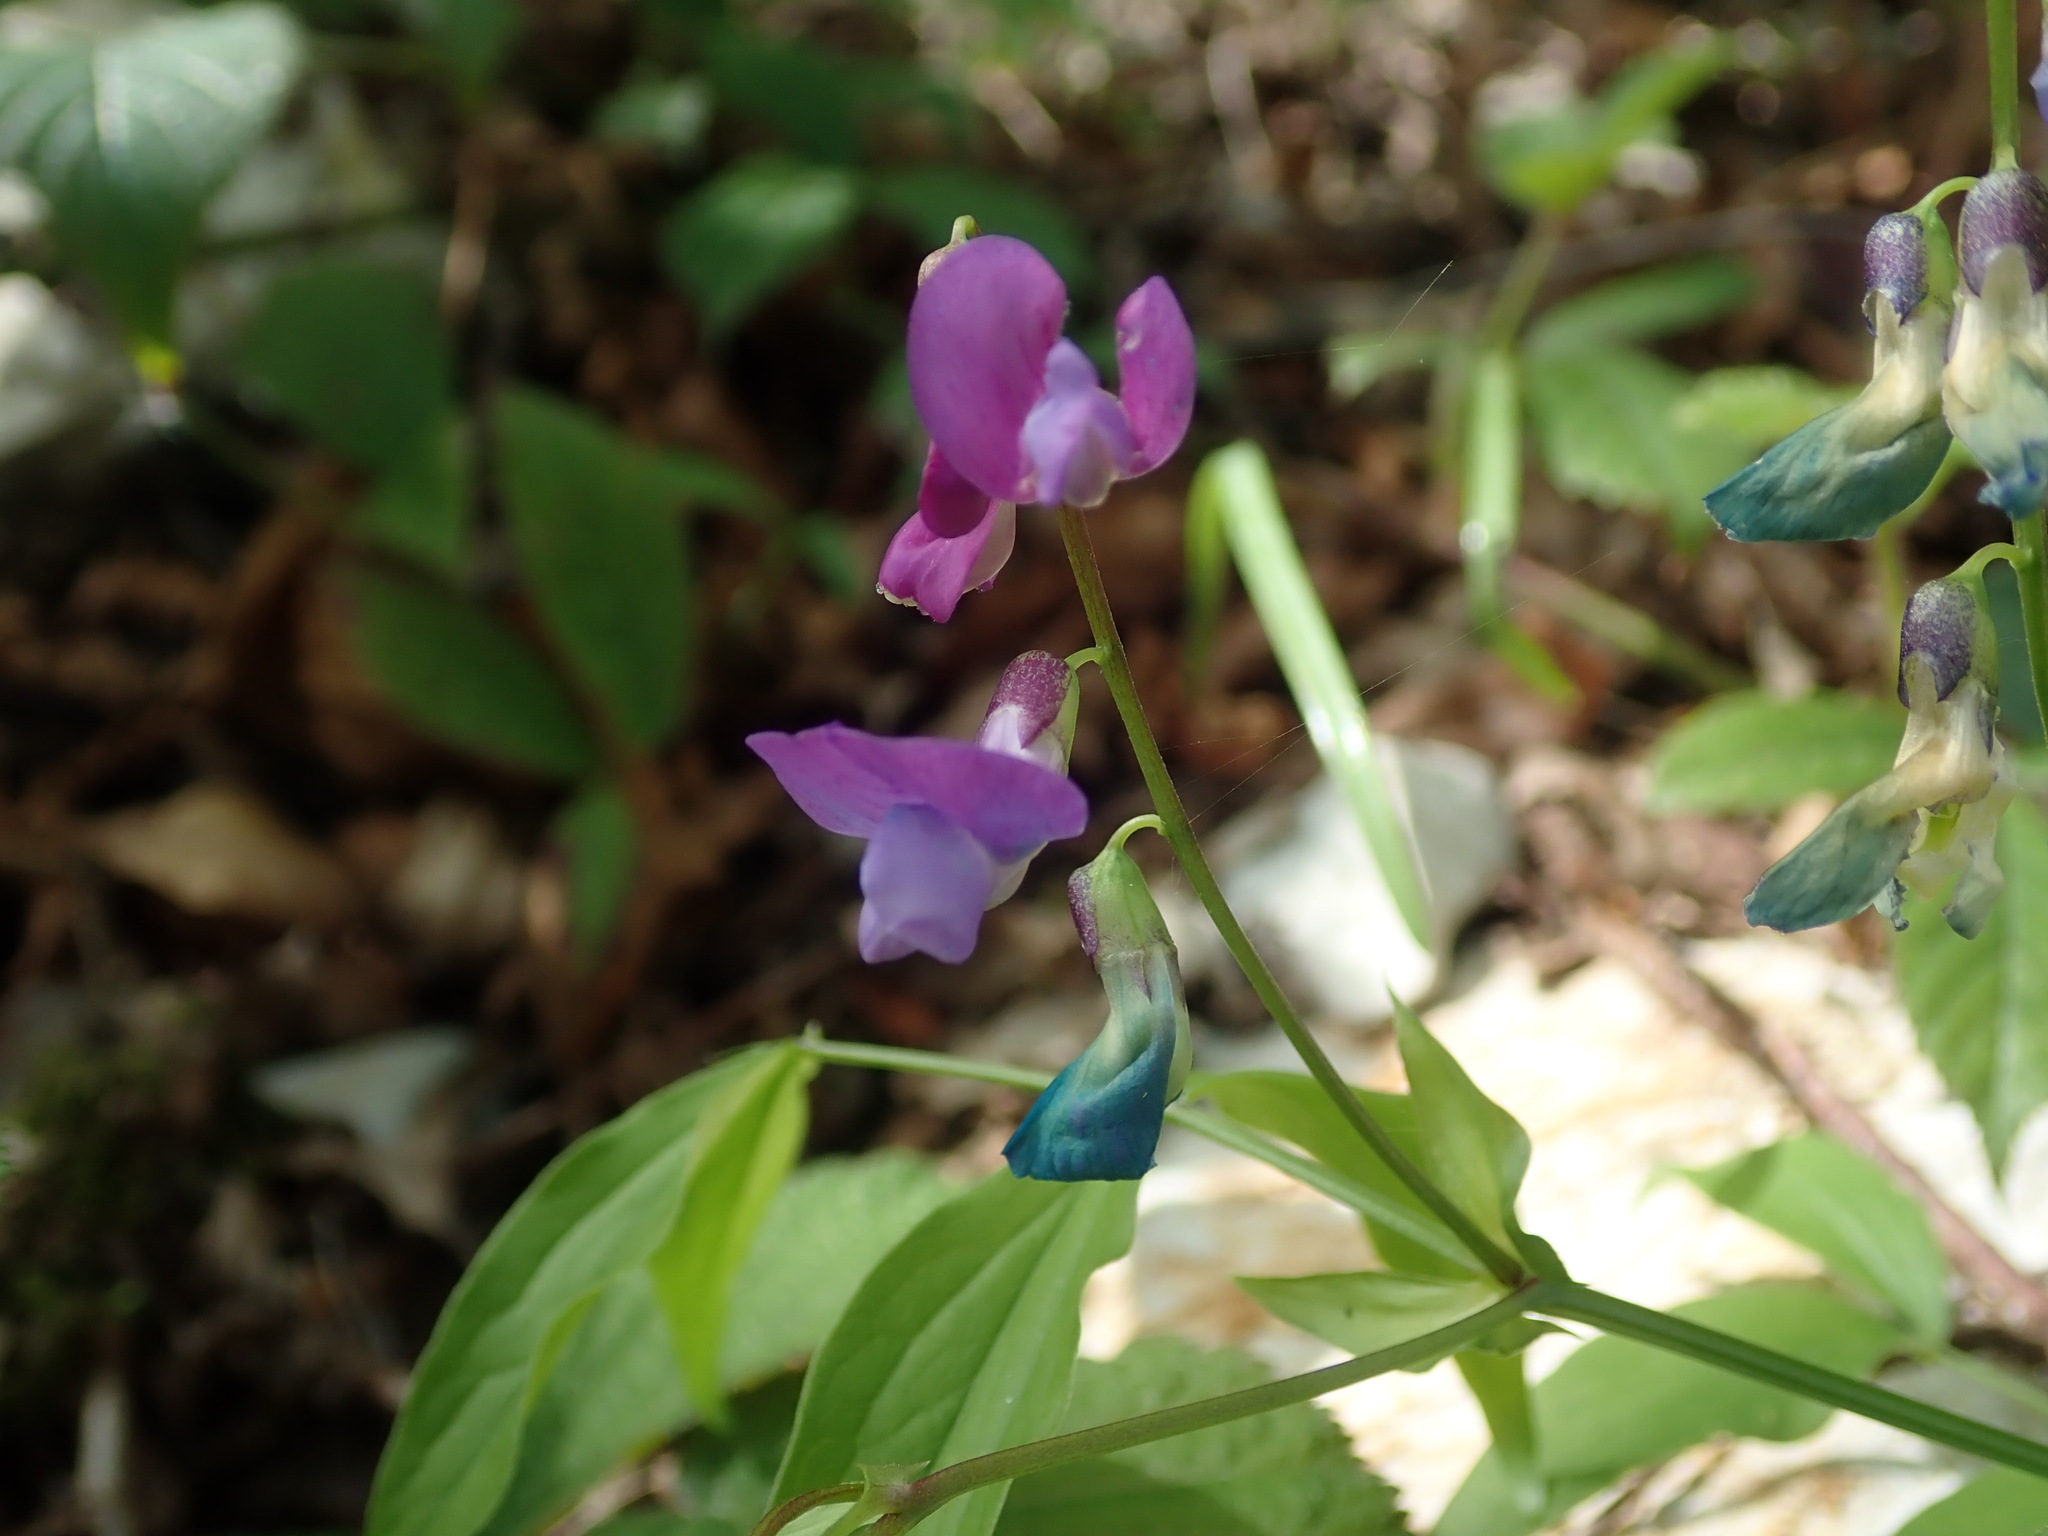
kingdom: Plantae
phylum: Tracheophyta
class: Magnoliopsida
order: Fabales
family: Fabaceae
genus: Lathyrus
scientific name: Lathyrus vernus
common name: Spring pea
